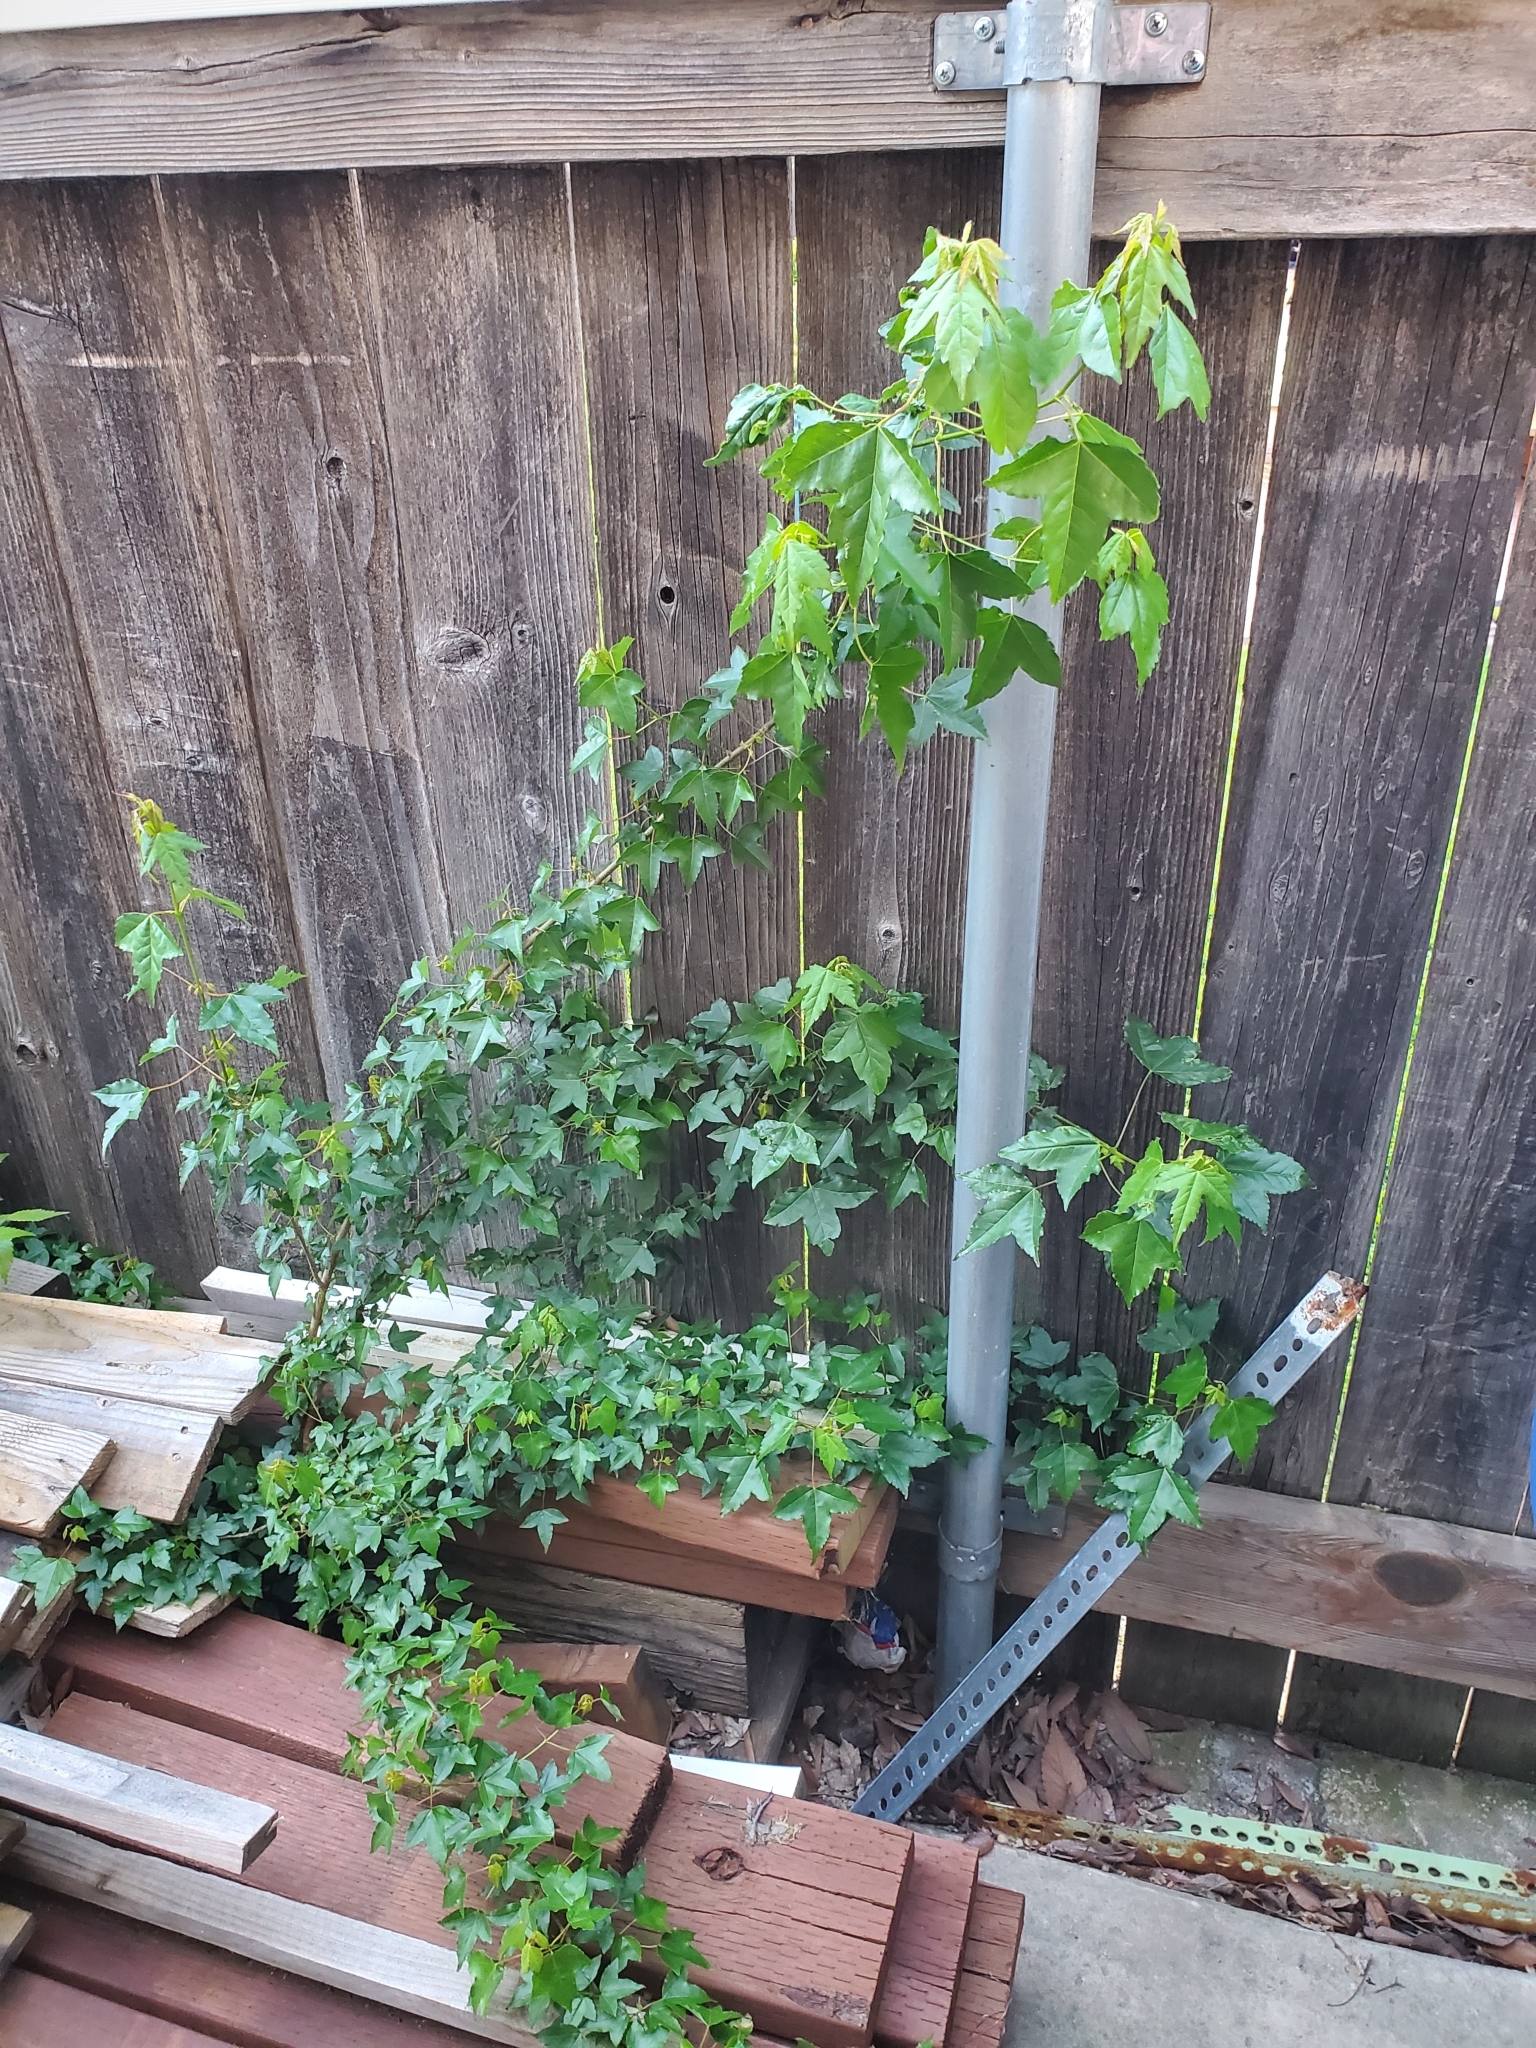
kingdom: Plantae
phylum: Tracheophyta
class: Magnoliopsida
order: Sapindales
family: Sapindaceae
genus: Acer
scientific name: Acer buergerianum
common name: Trident maple
